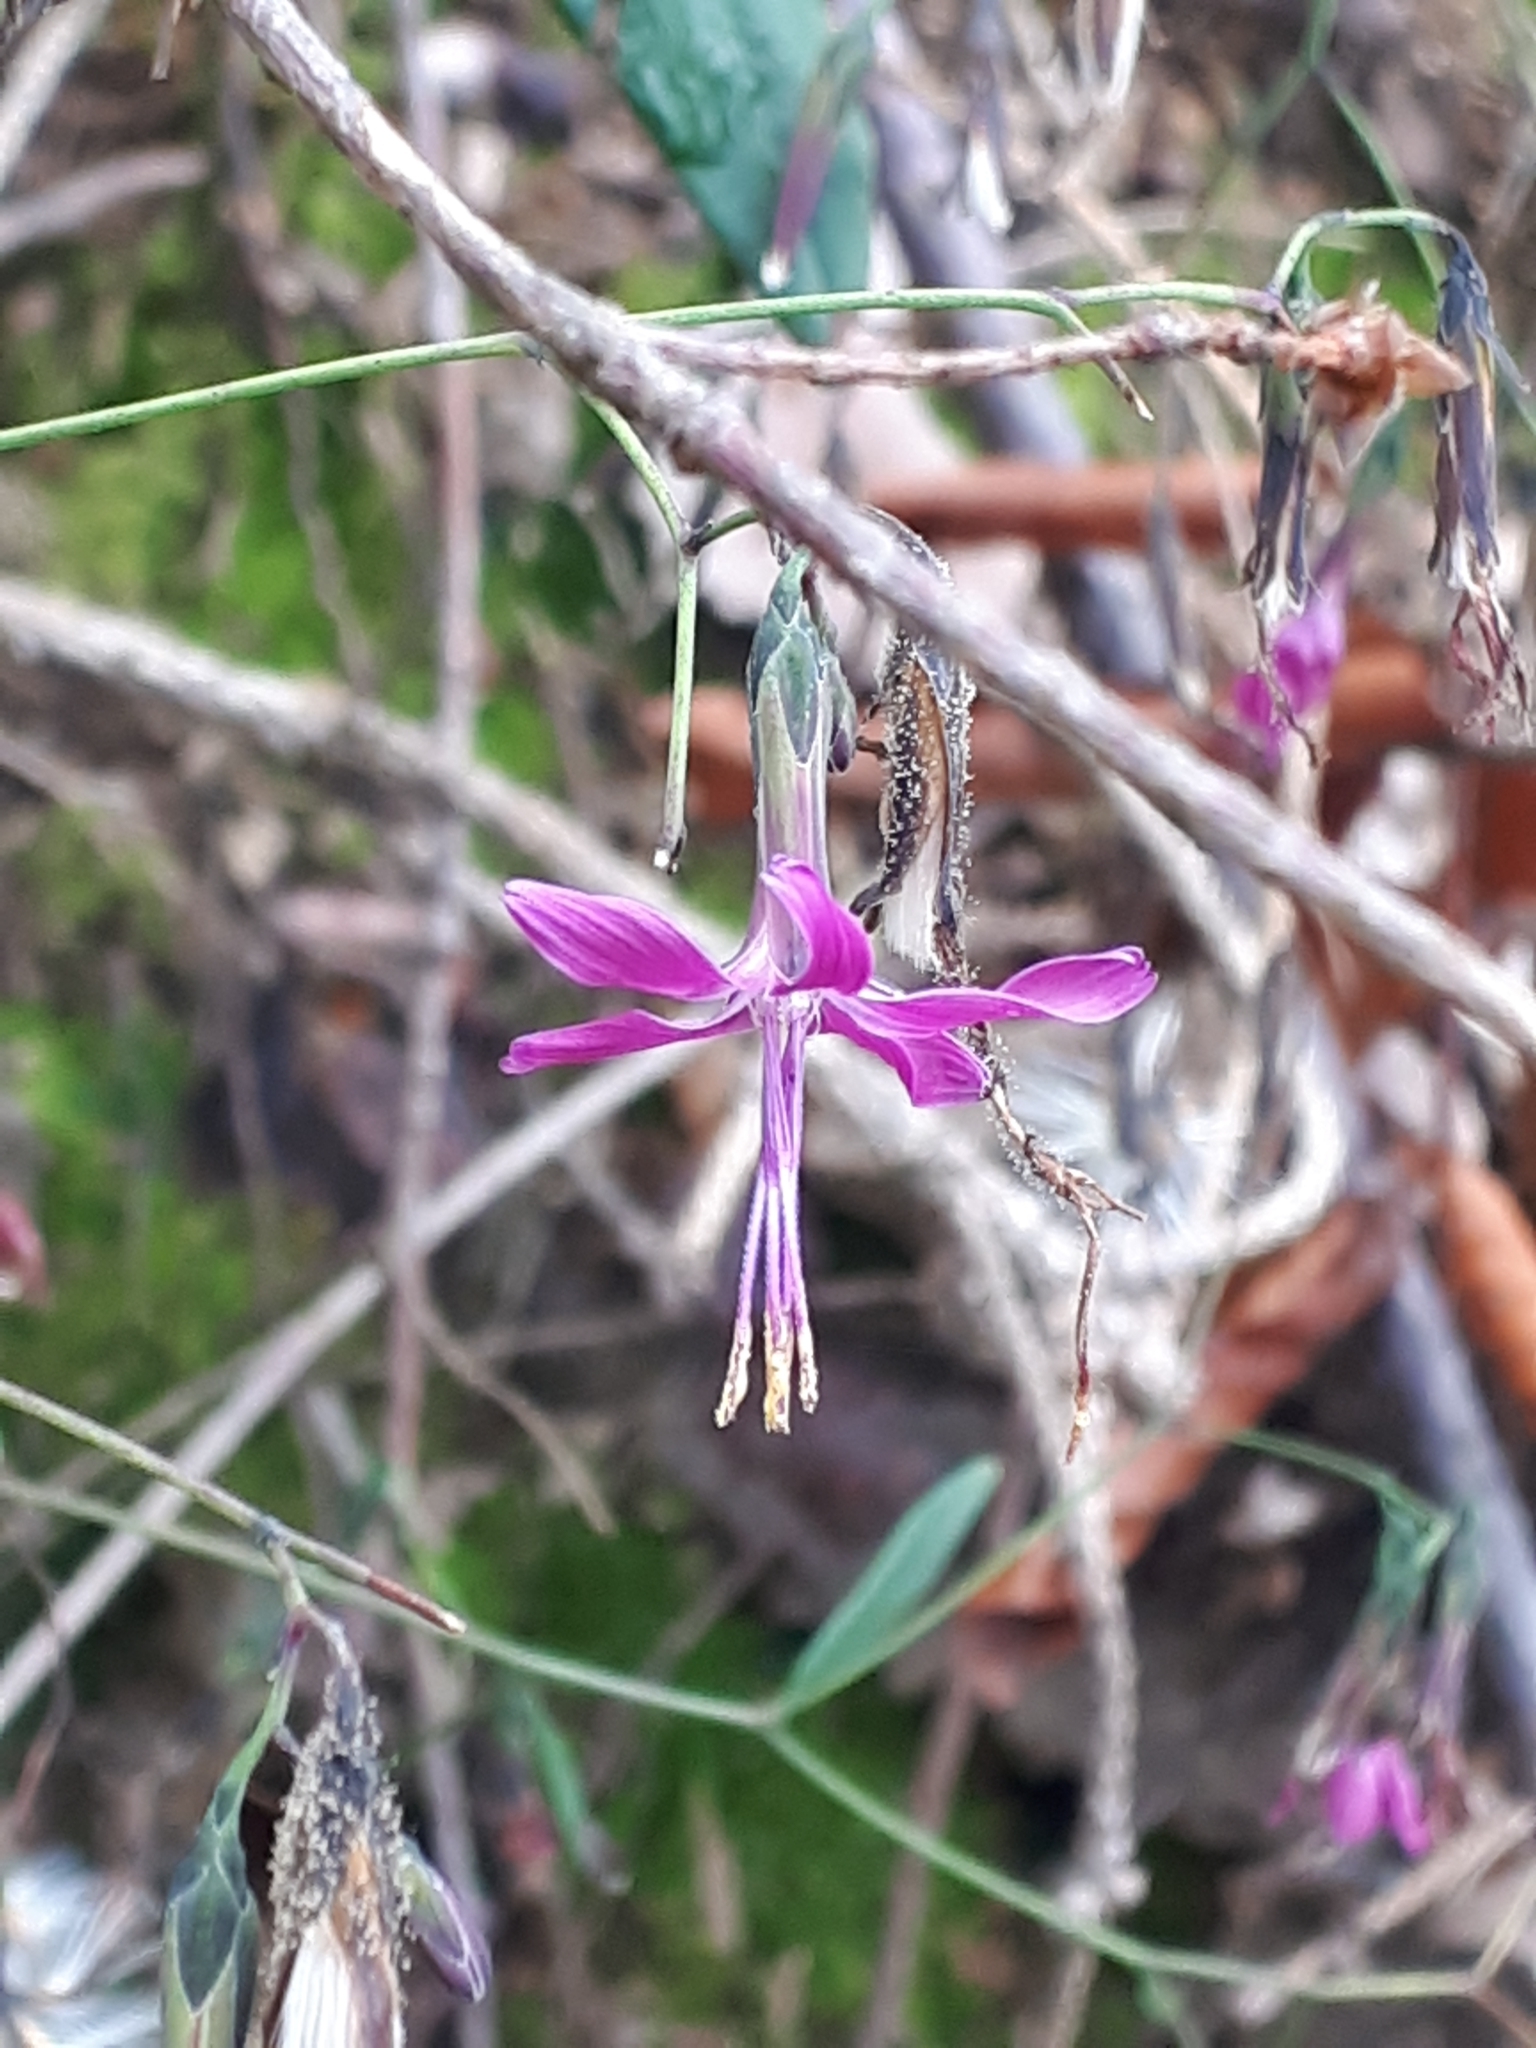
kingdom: Plantae
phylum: Tracheophyta
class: Magnoliopsida
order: Asterales
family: Asteraceae
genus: Prenanthes
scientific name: Prenanthes purpurea
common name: Purple lettuce
